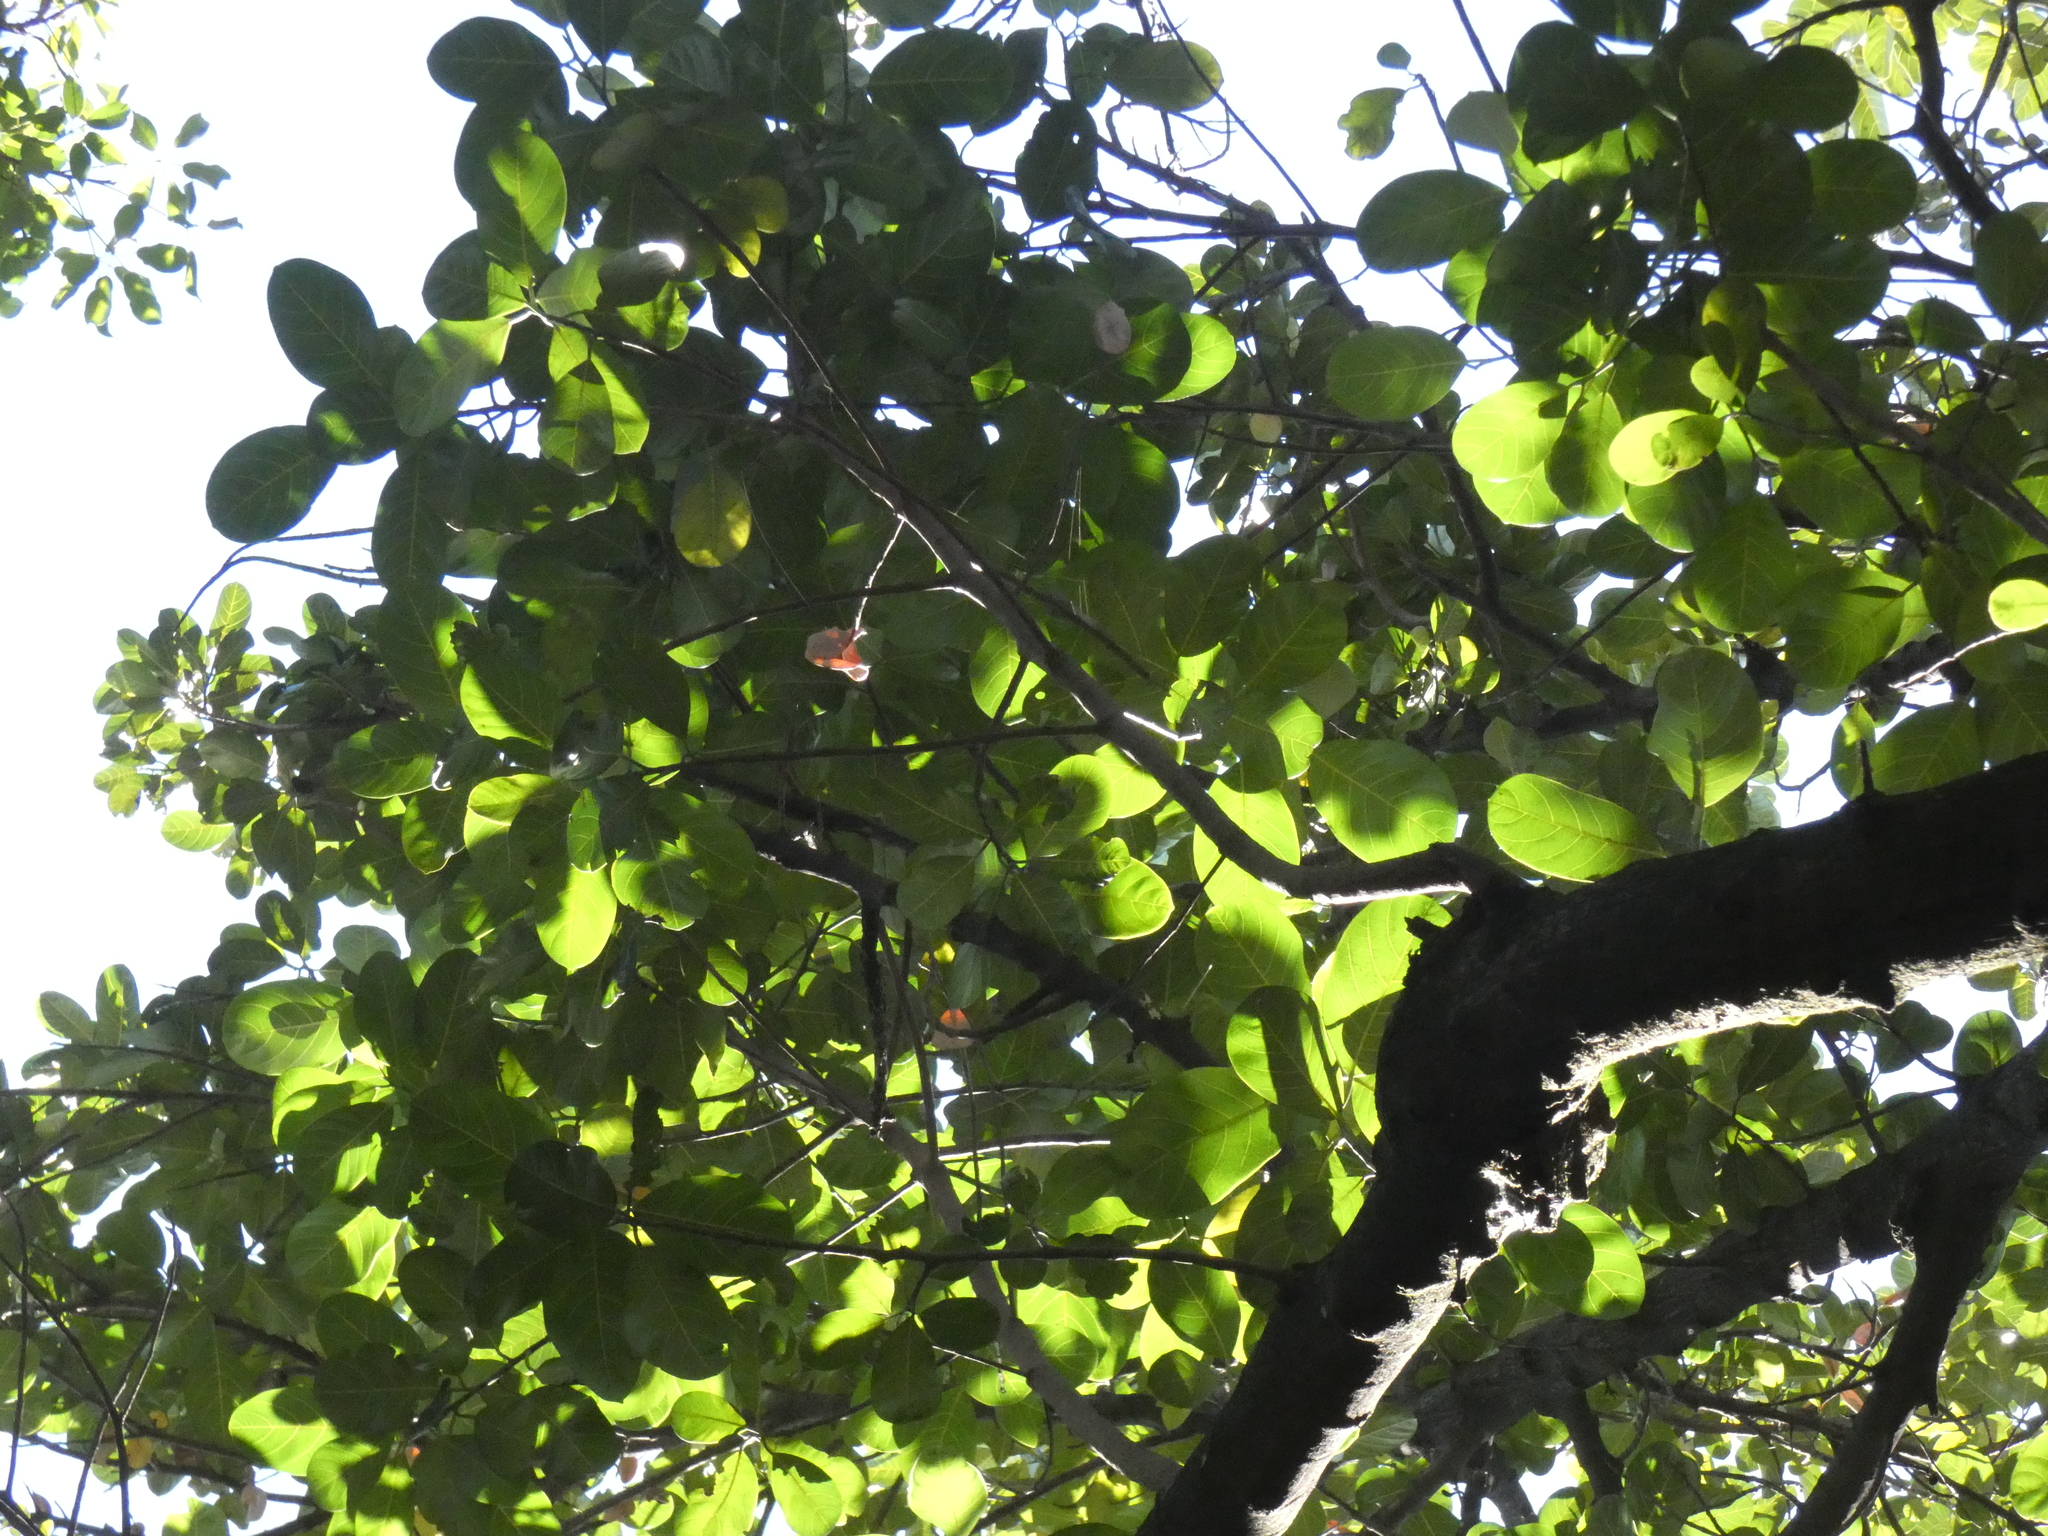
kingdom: Plantae
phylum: Tracheophyta
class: Magnoliopsida
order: Rosales
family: Moraceae
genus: Artocarpus
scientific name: Artocarpus heterophyllus
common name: Jackfruit
